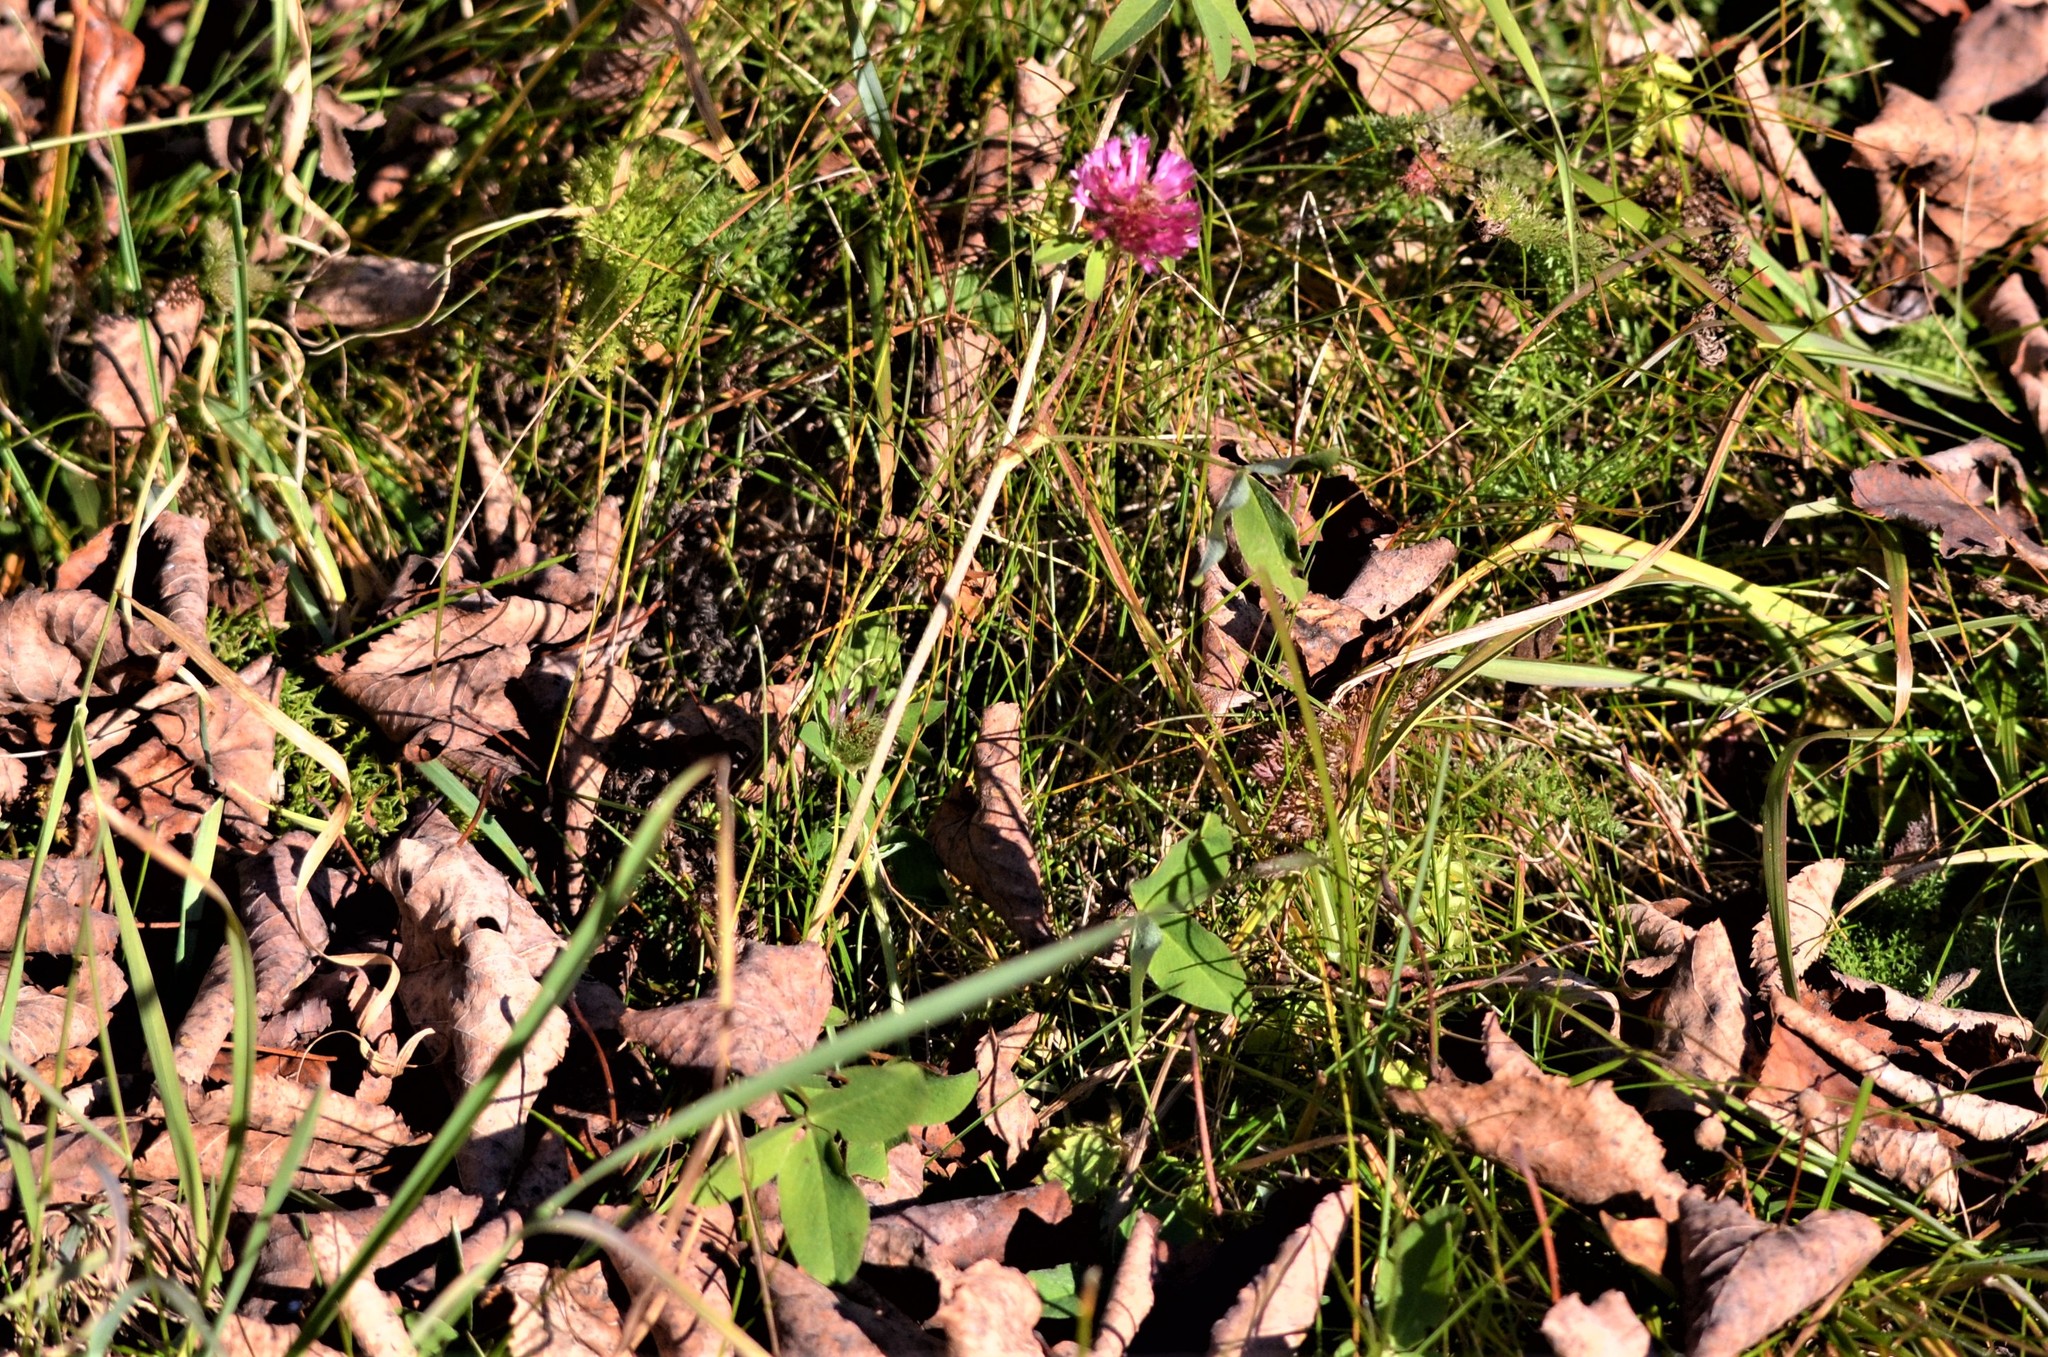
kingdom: Plantae
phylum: Tracheophyta
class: Magnoliopsida
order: Fabales
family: Fabaceae
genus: Trifolium
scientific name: Trifolium pratense
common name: Red clover
